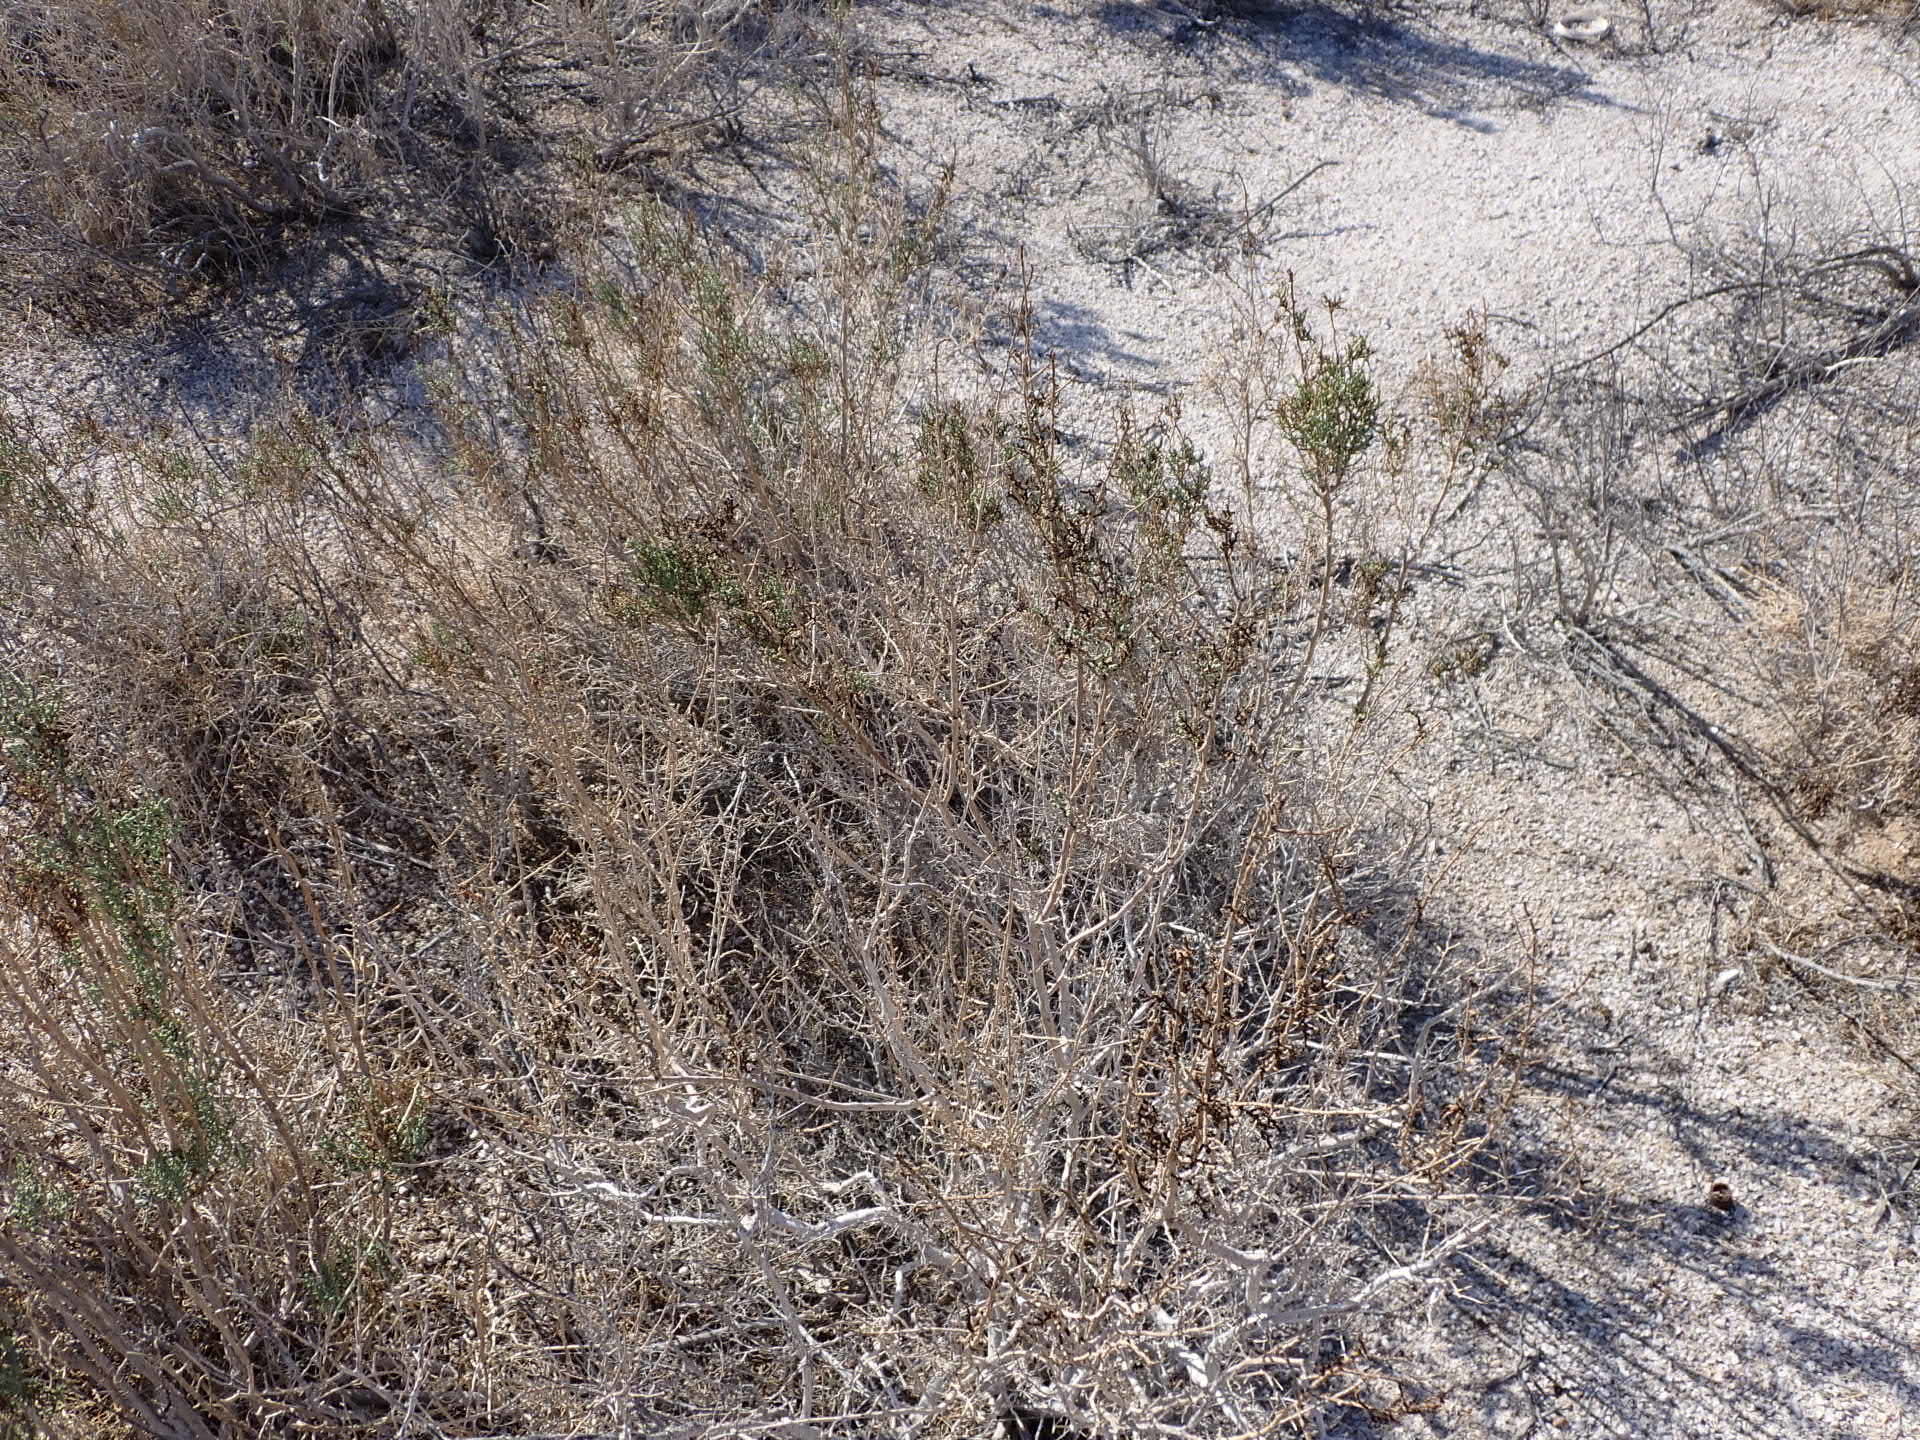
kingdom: Plantae
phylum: Tracheophyta
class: Magnoliopsida
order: Caryophyllales
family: Amaranthaceae
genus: Allenrolfea
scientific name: Allenrolfea occidentalis
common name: Iodine-bush
